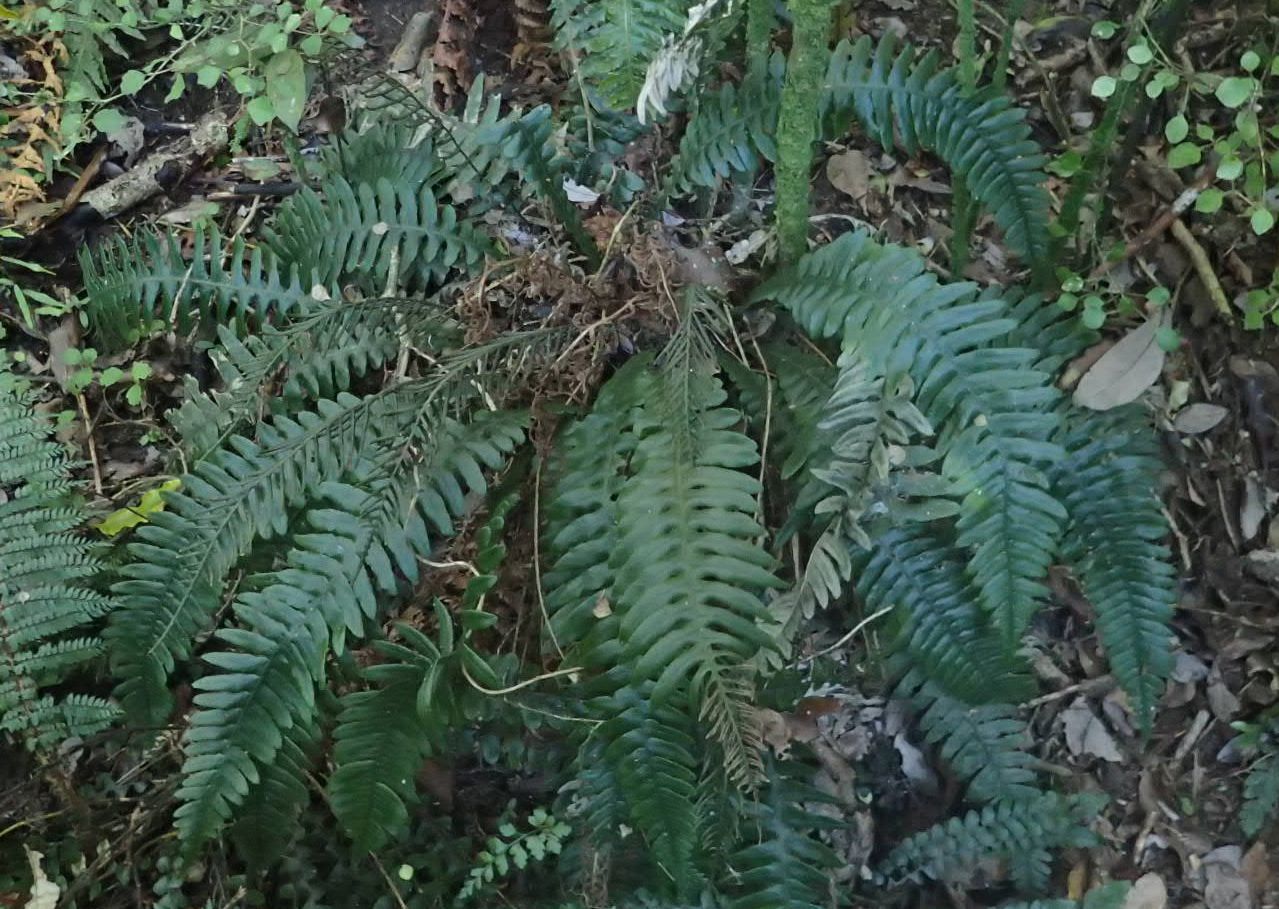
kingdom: Plantae
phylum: Tracheophyta
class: Polypodiopsida
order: Polypodiales
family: Blechnaceae
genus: Austroblechnum
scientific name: Austroblechnum lanceolatum
